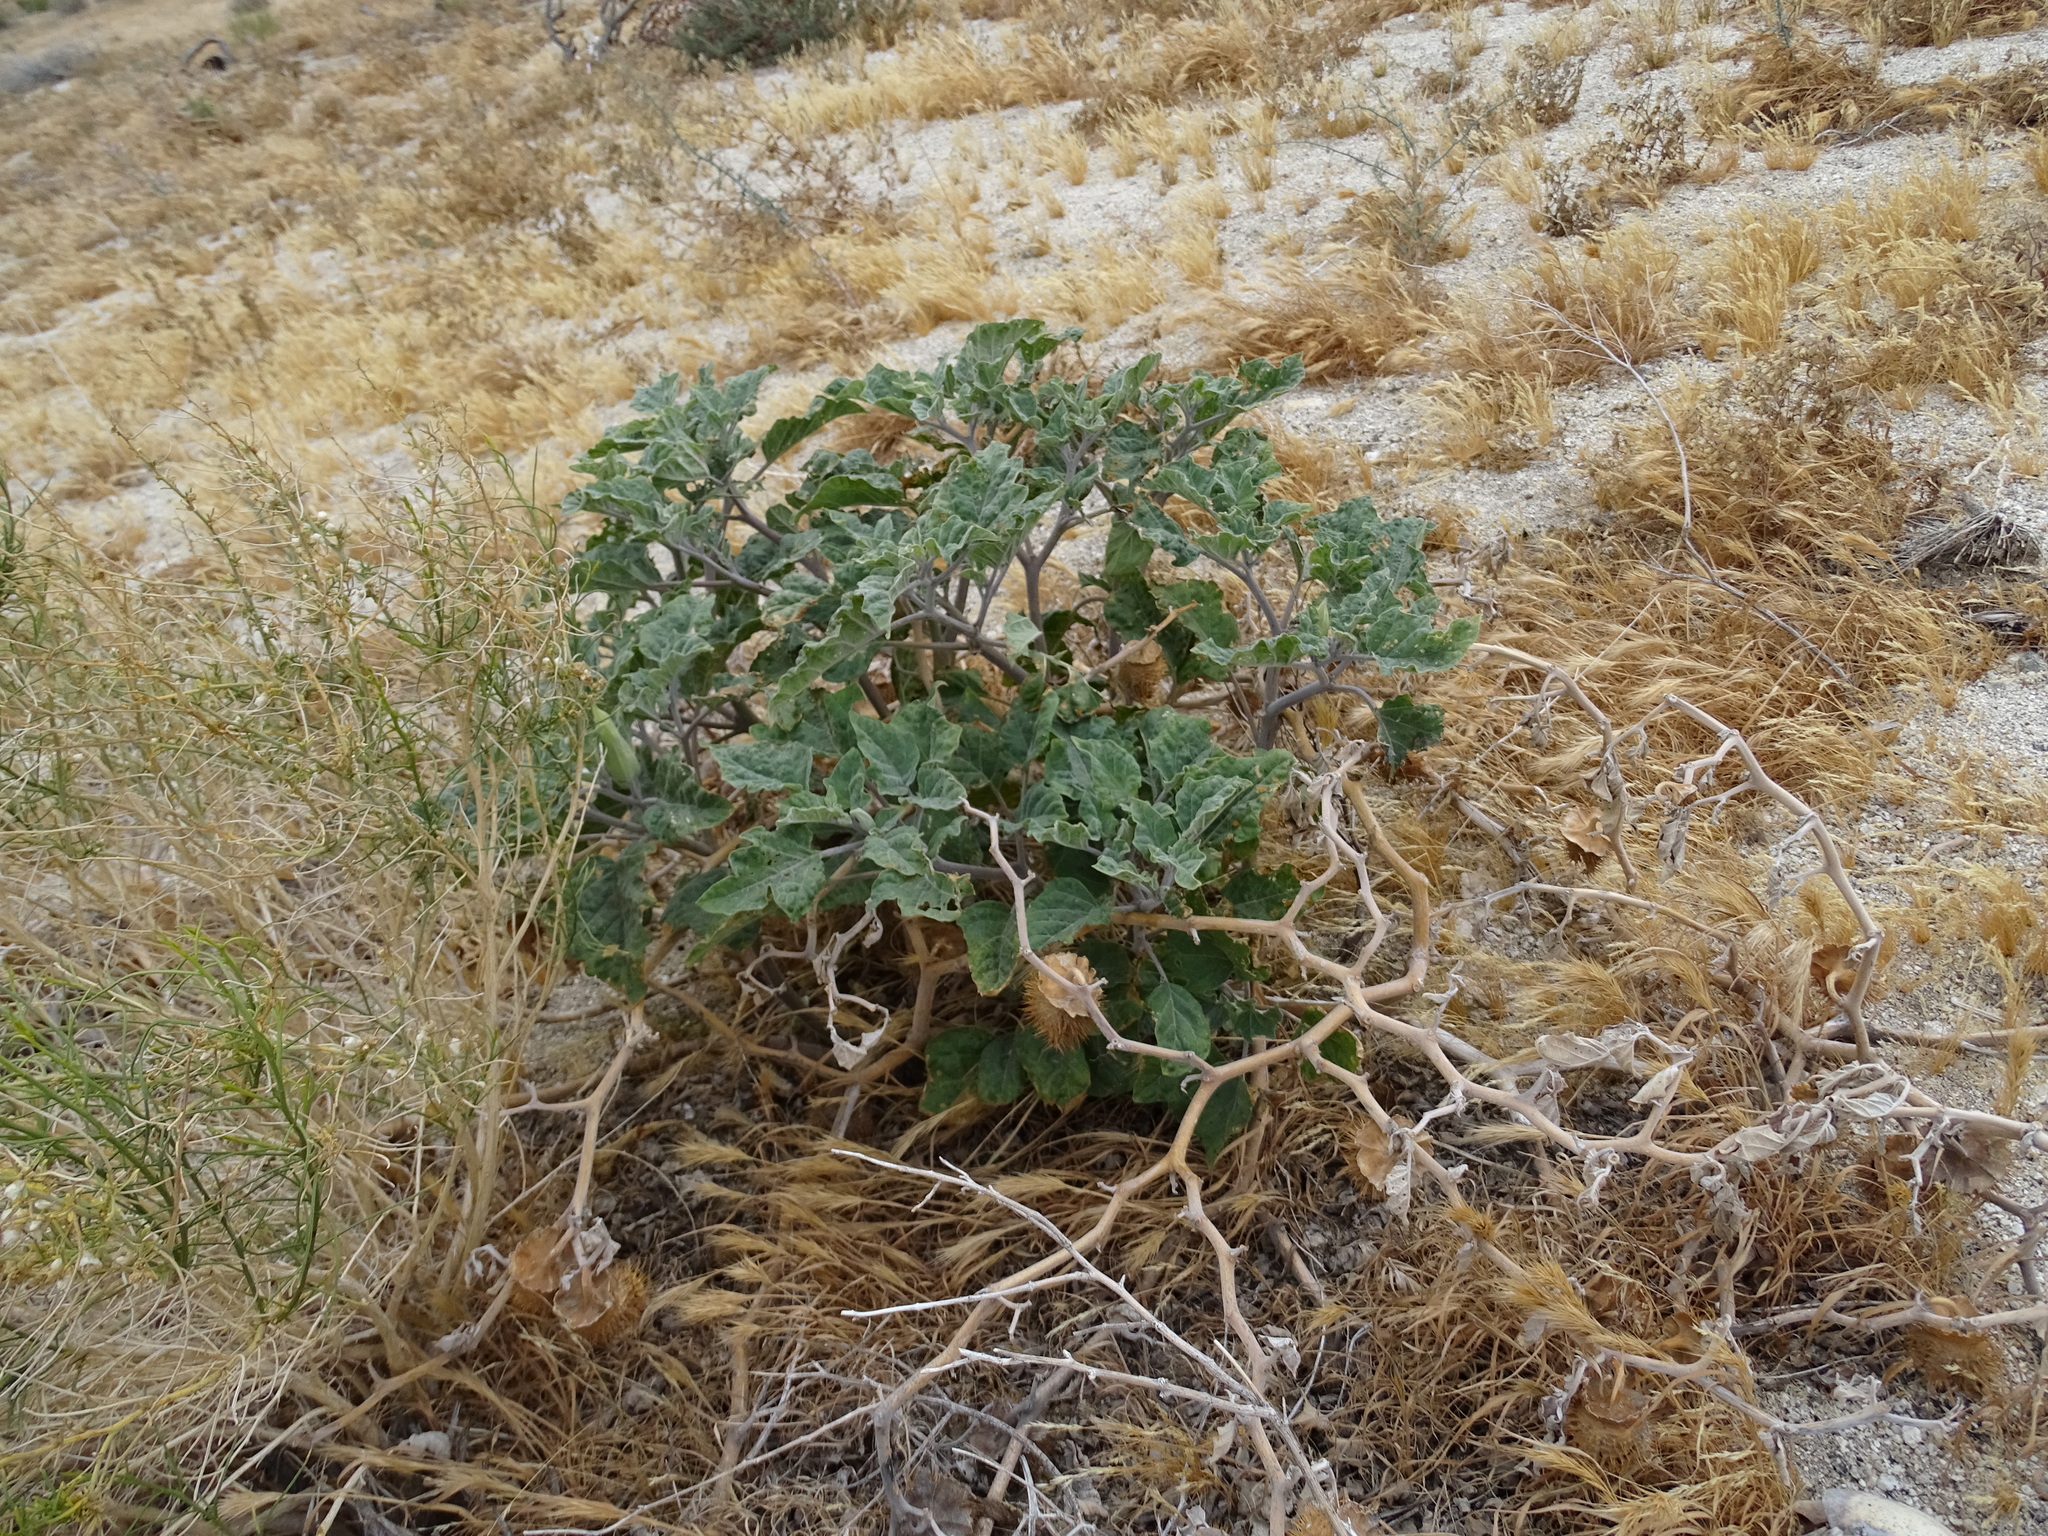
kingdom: Plantae
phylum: Tracheophyta
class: Magnoliopsida
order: Solanales
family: Solanaceae
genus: Datura
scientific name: Datura wrightii
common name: Sacred thorn-apple
